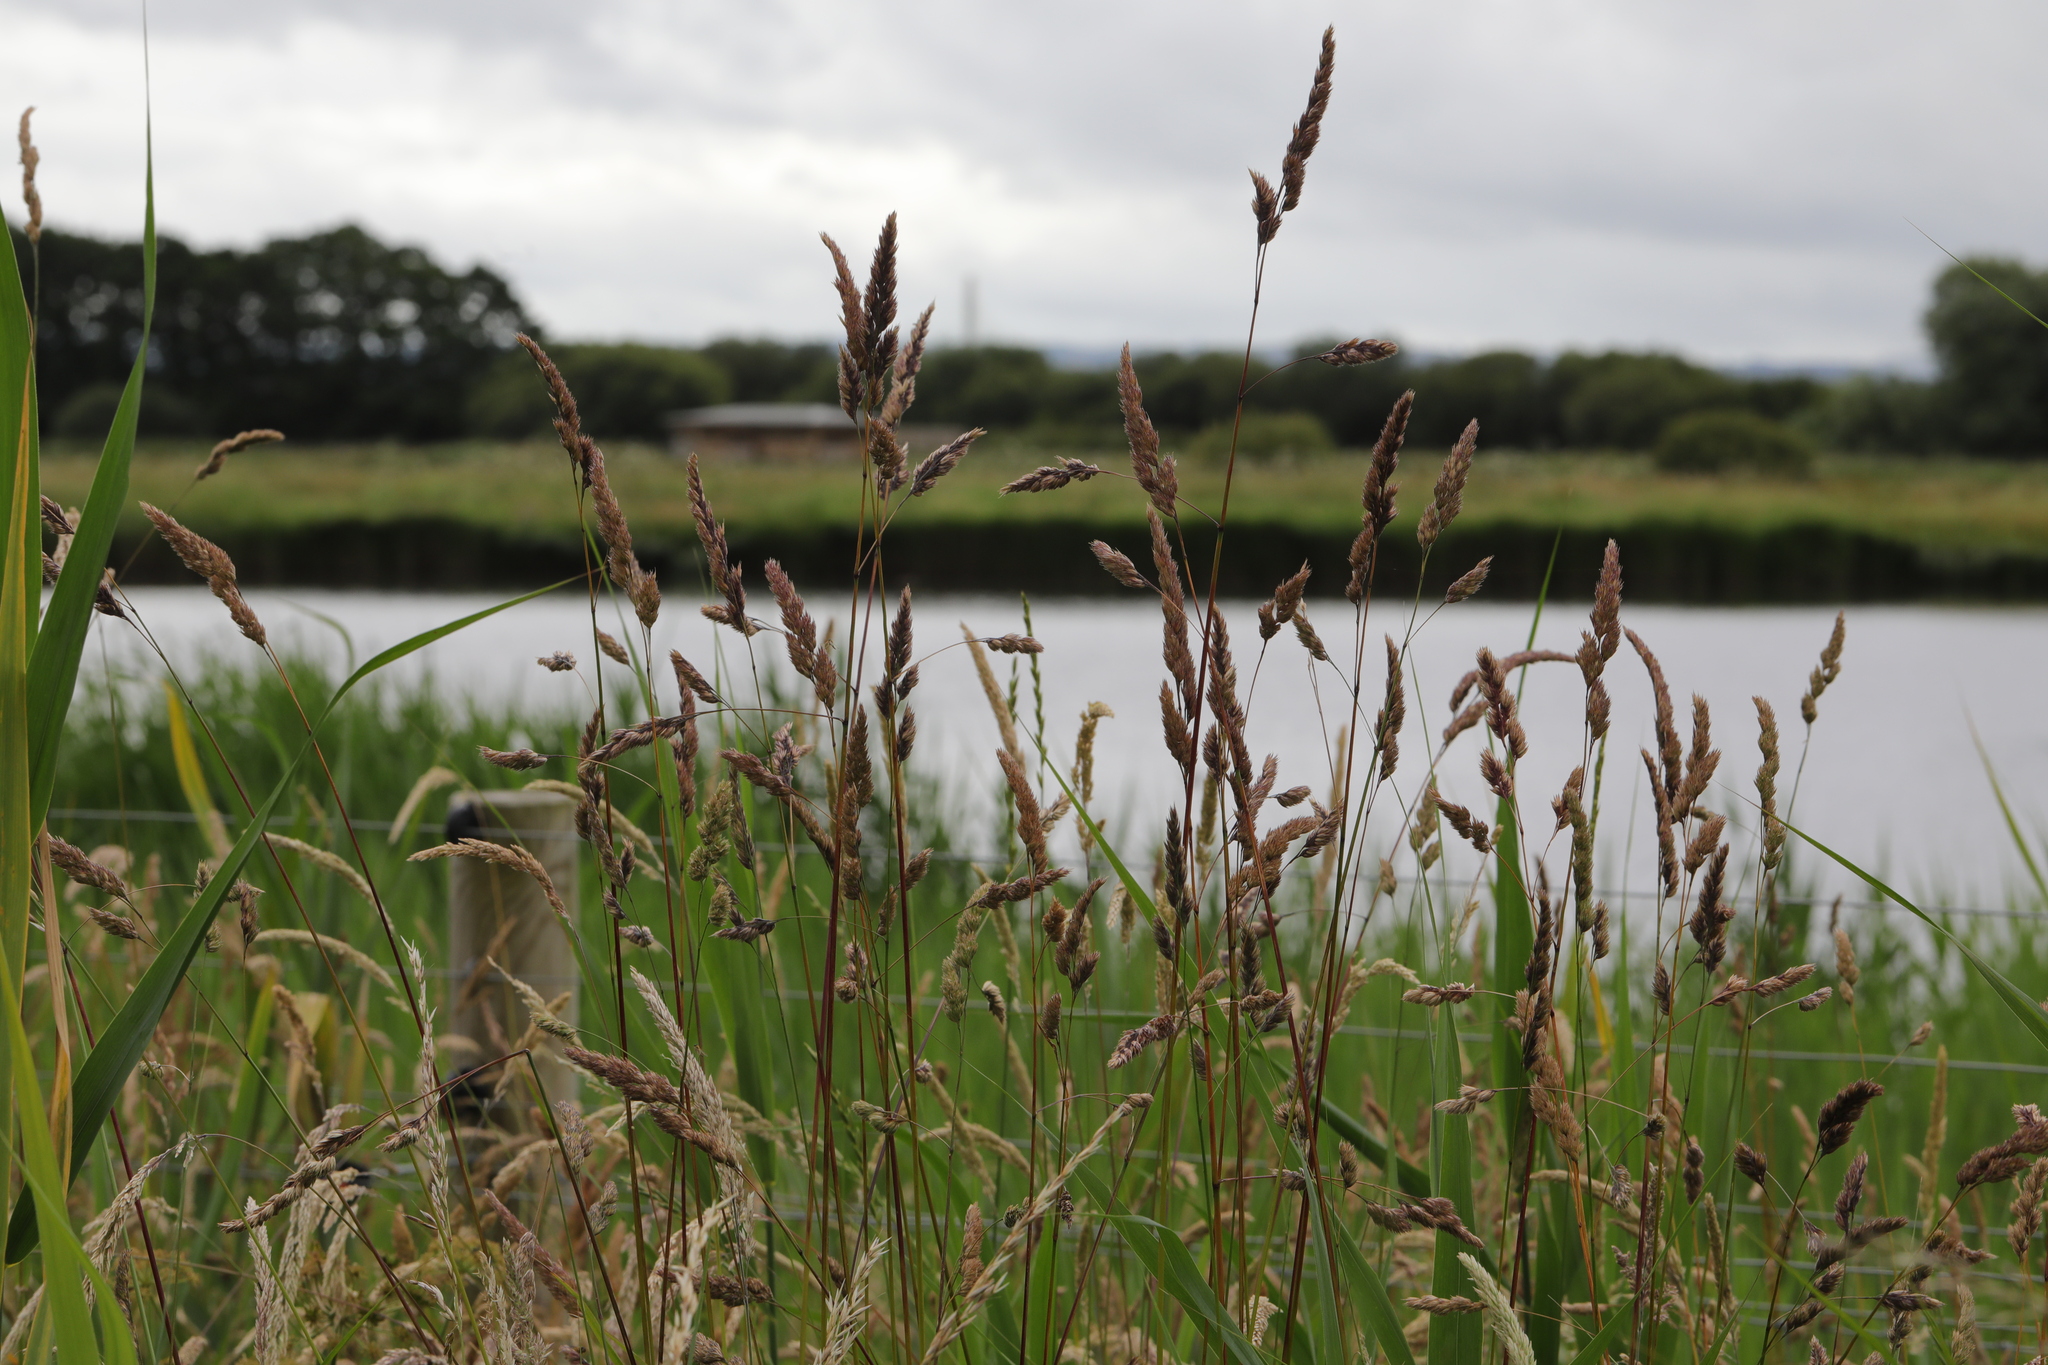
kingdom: Plantae
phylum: Tracheophyta
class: Liliopsida
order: Poales
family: Poaceae
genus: Dactylis
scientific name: Dactylis glomerata
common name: Orchardgrass
